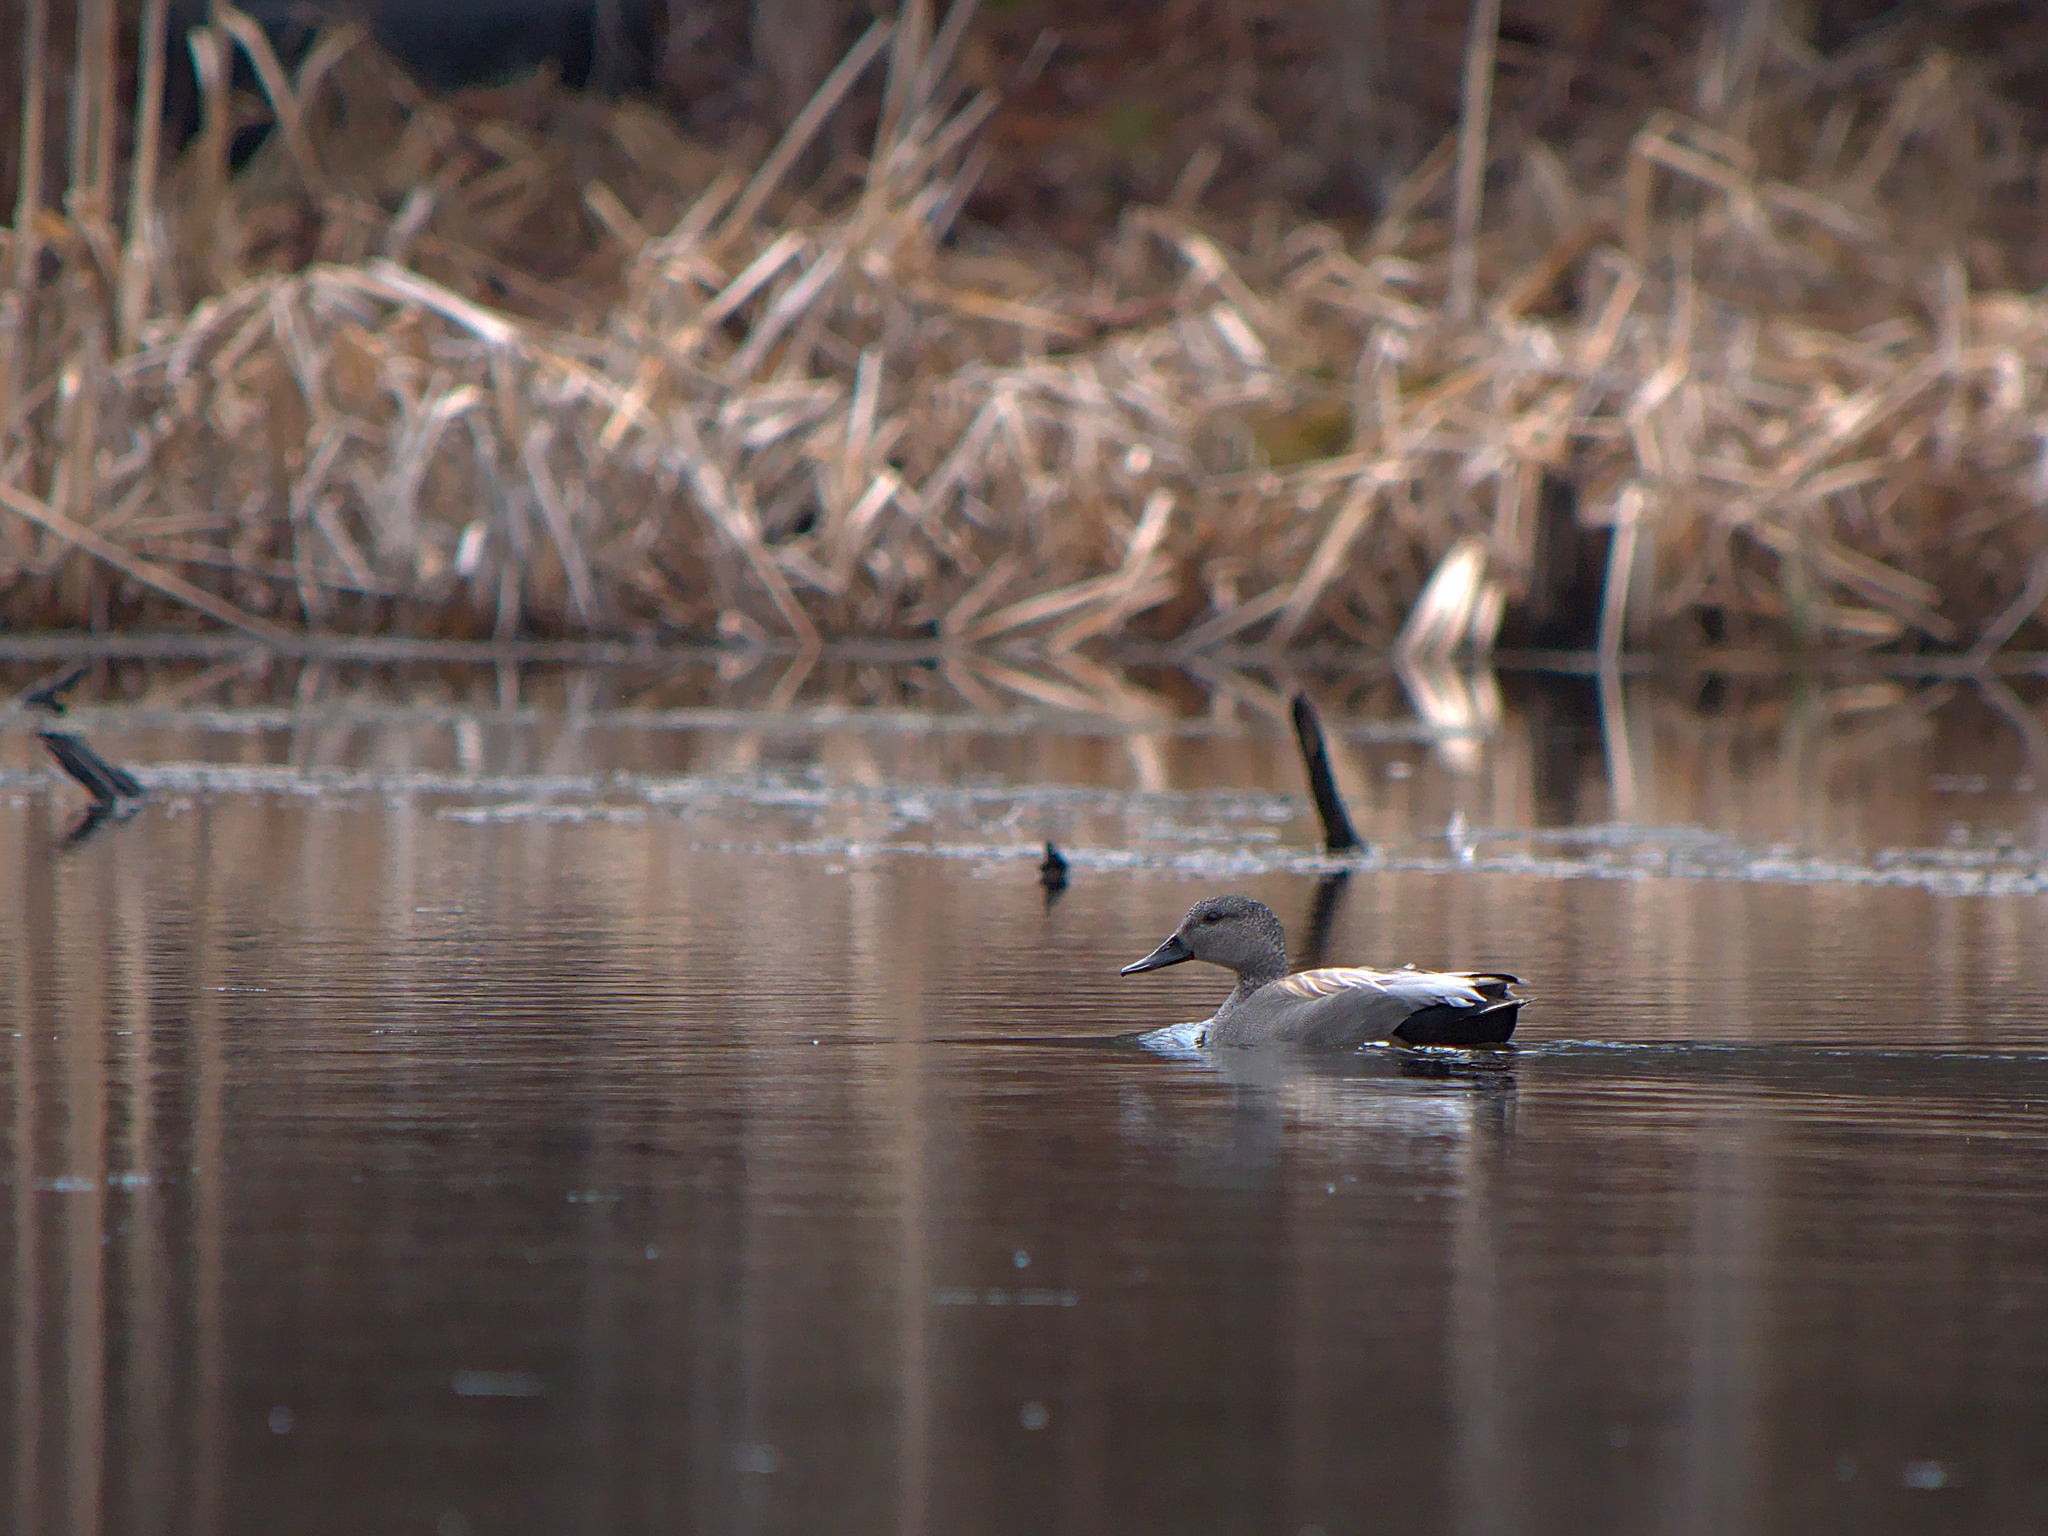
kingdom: Animalia
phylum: Chordata
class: Aves
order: Anseriformes
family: Anatidae
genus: Mareca
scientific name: Mareca strepera
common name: Gadwall
